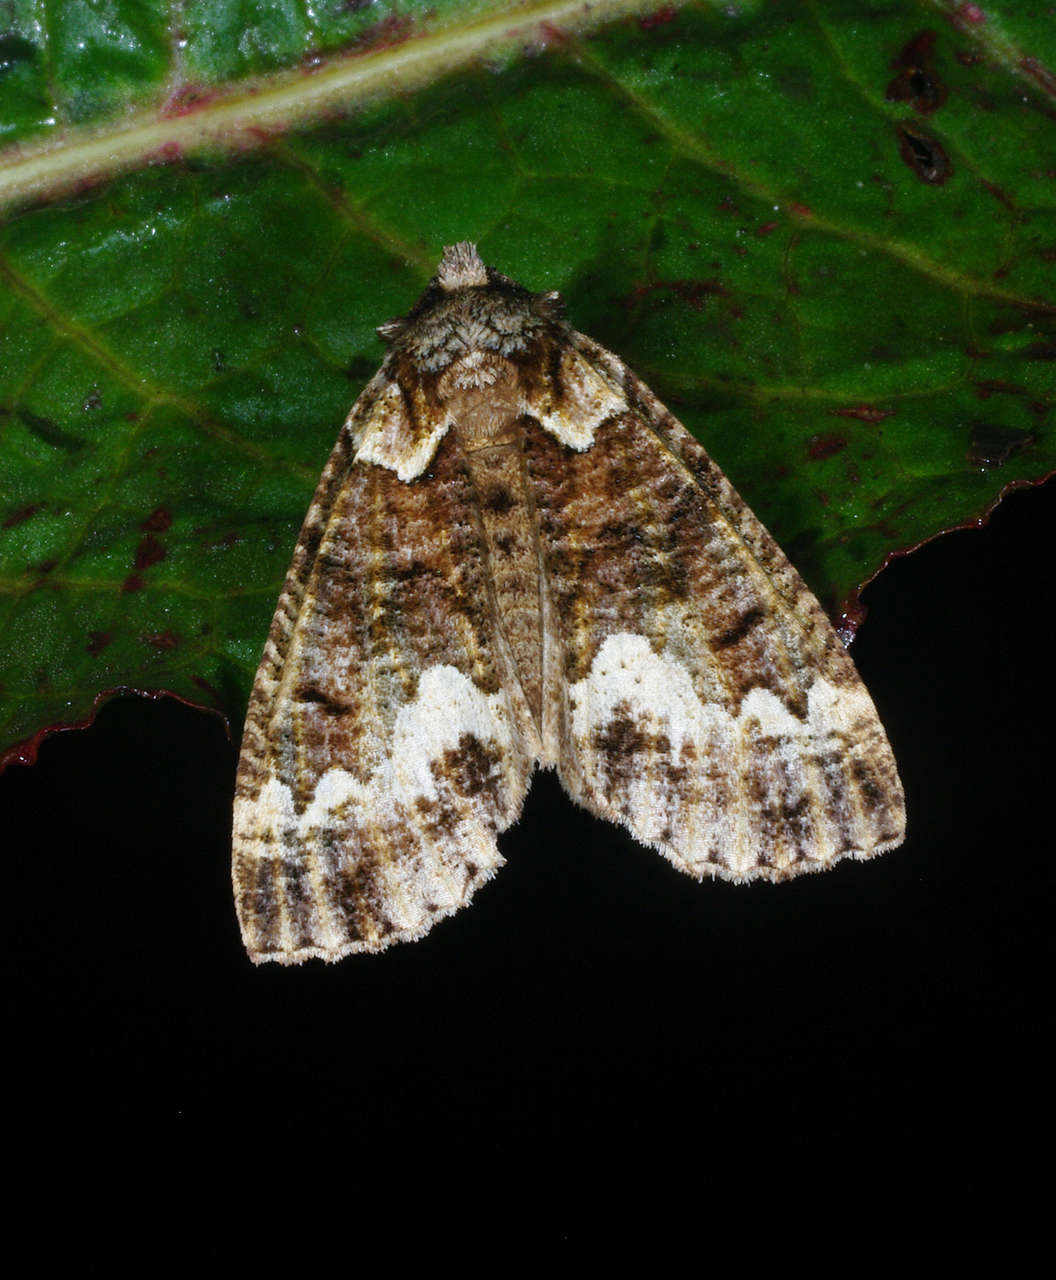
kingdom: Animalia
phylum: Arthropoda
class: Insecta
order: Lepidoptera
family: Geometridae
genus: Chlenias
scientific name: Chlenias ochrocrana
